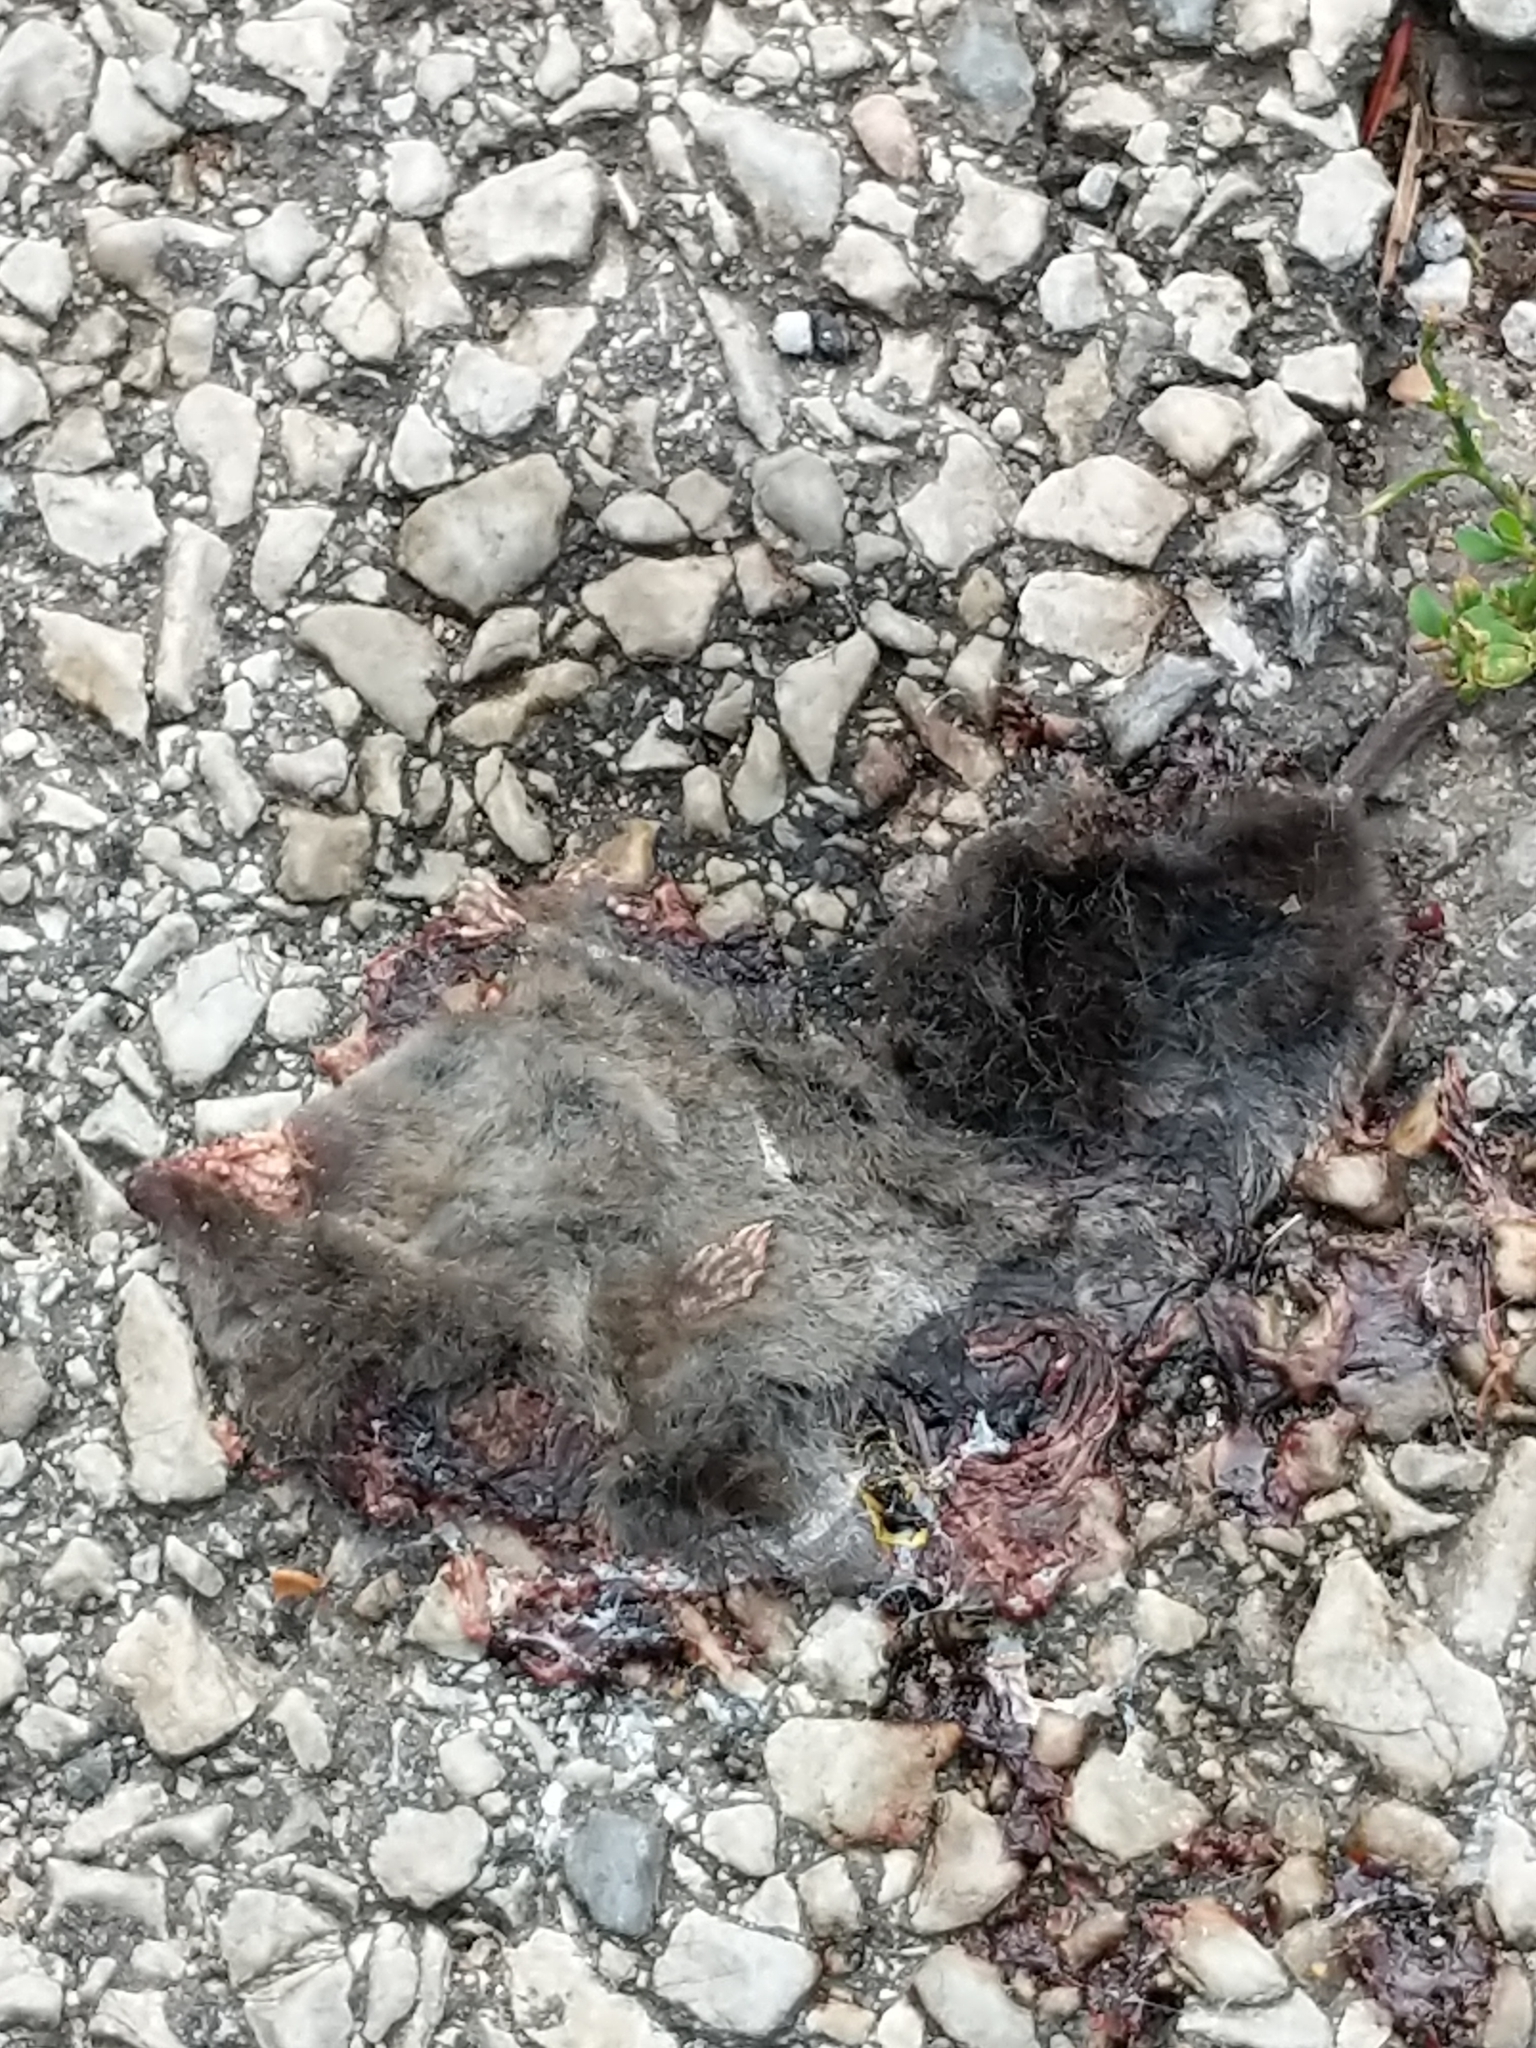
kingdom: Animalia
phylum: Chordata
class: Mammalia
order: Soricomorpha
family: Soricidae
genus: Blarina
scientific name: Blarina brevicauda
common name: Northern short-tailed shrew
